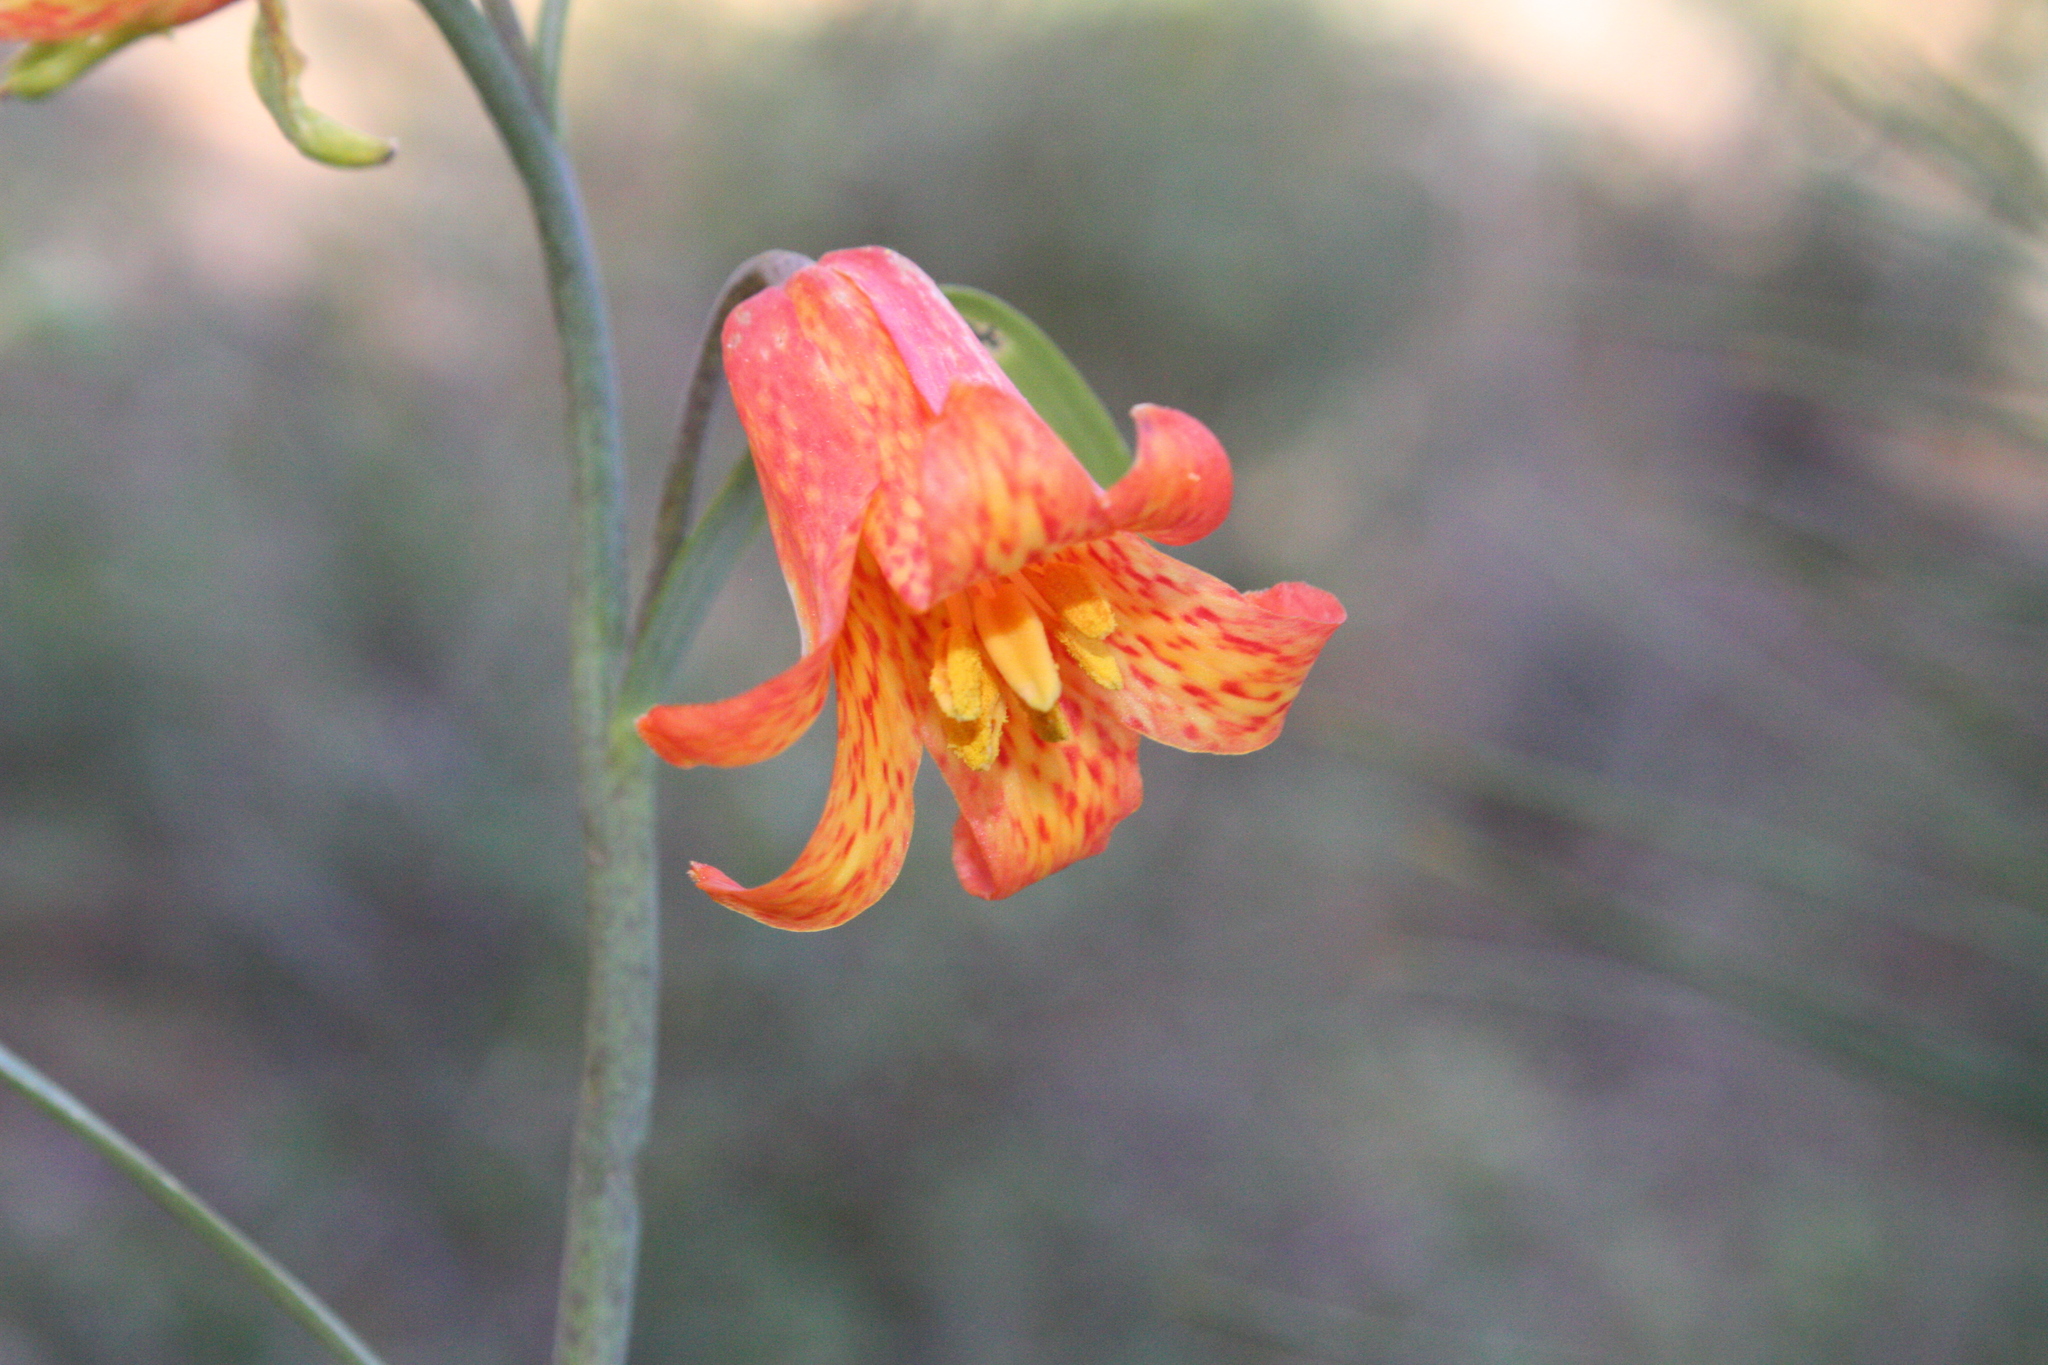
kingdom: Plantae
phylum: Tracheophyta
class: Liliopsida
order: Liliales
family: Liliaceae
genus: Fritillaria
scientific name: Fritillaria recurva
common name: Scarlet fritillary
